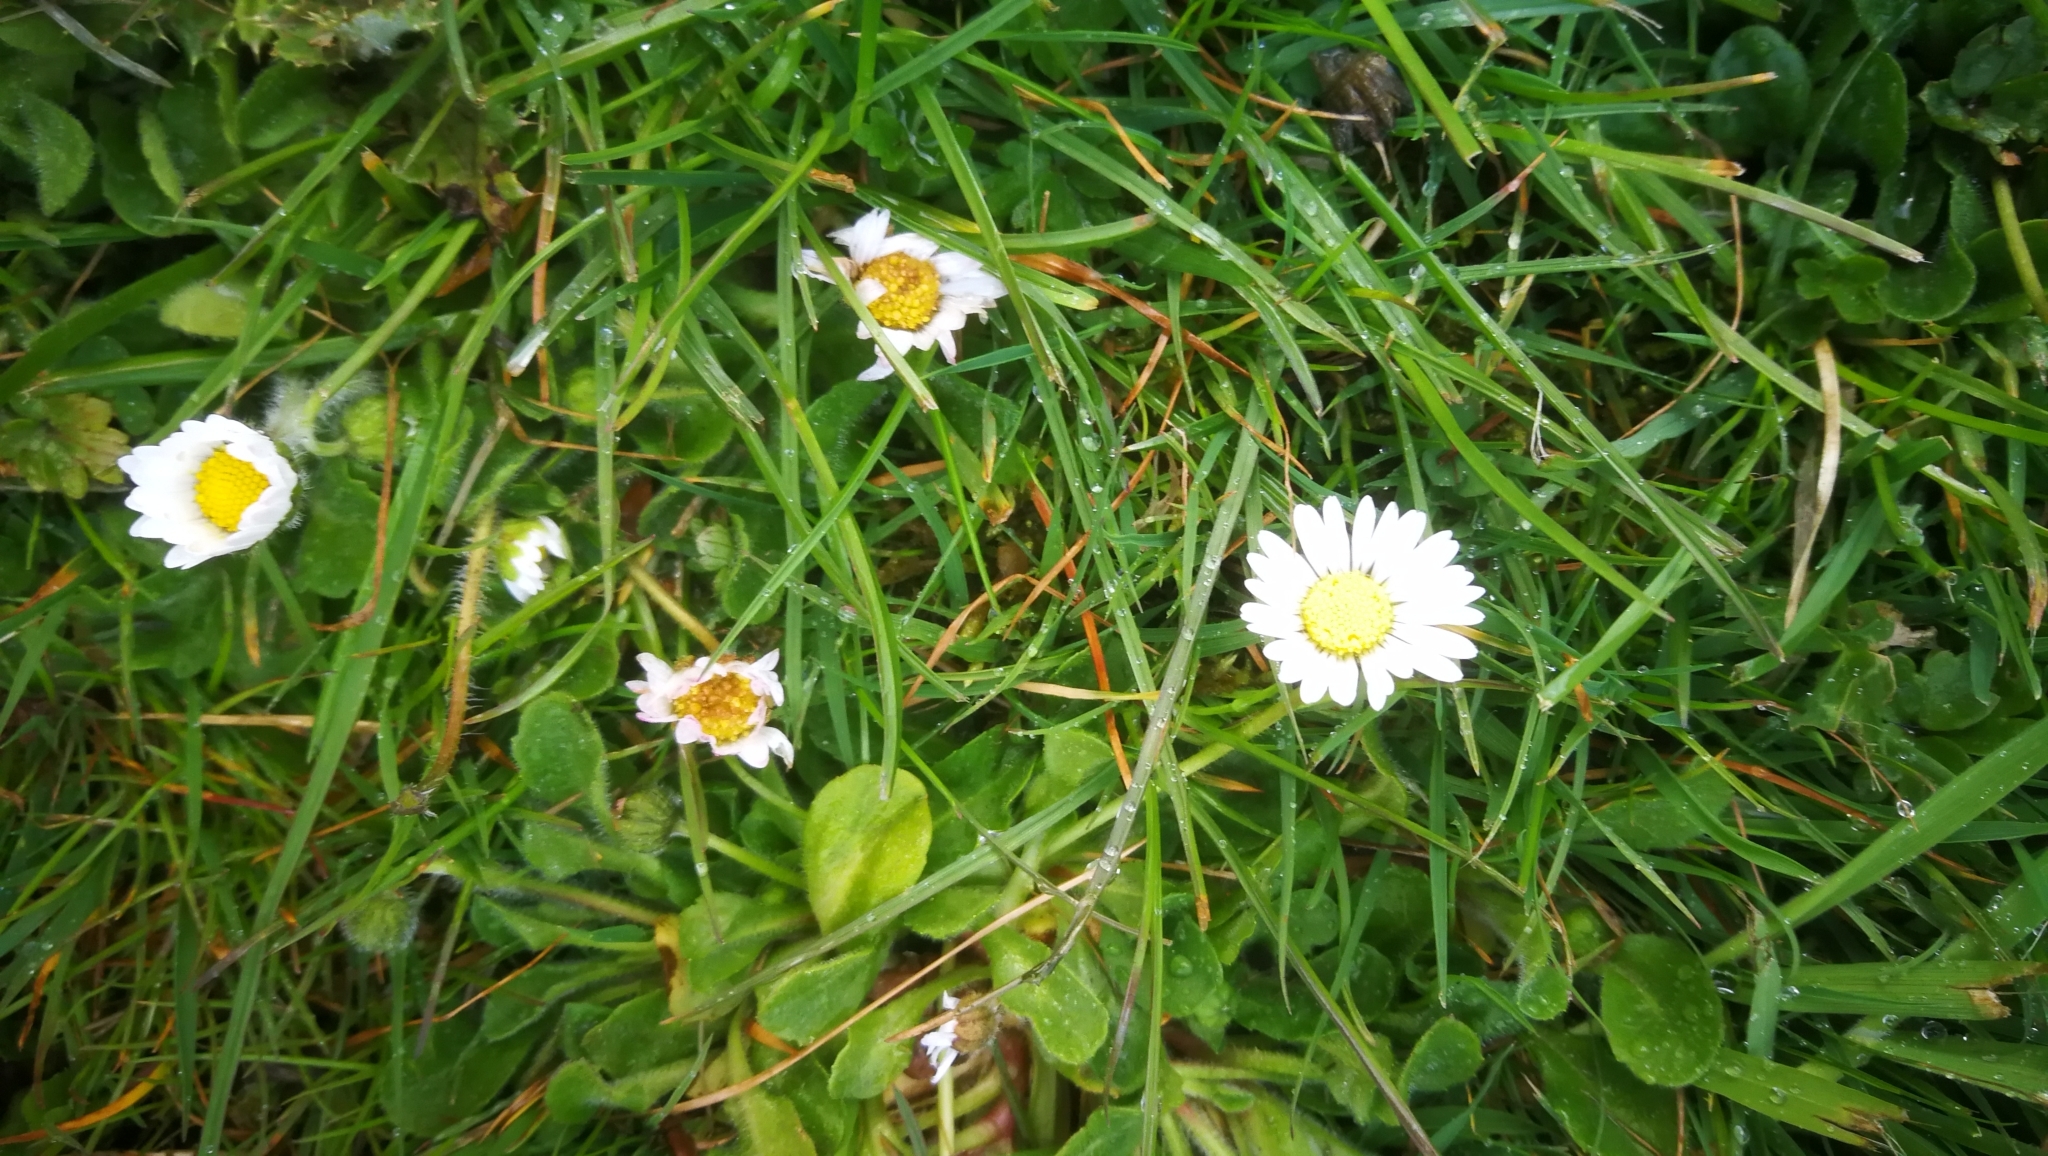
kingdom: Plantae
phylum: Tracheophyta
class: Magnoliopsida
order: Asterales
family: Asteraceae
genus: Bellis
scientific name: Bellis perennis
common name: Lawndaisy
